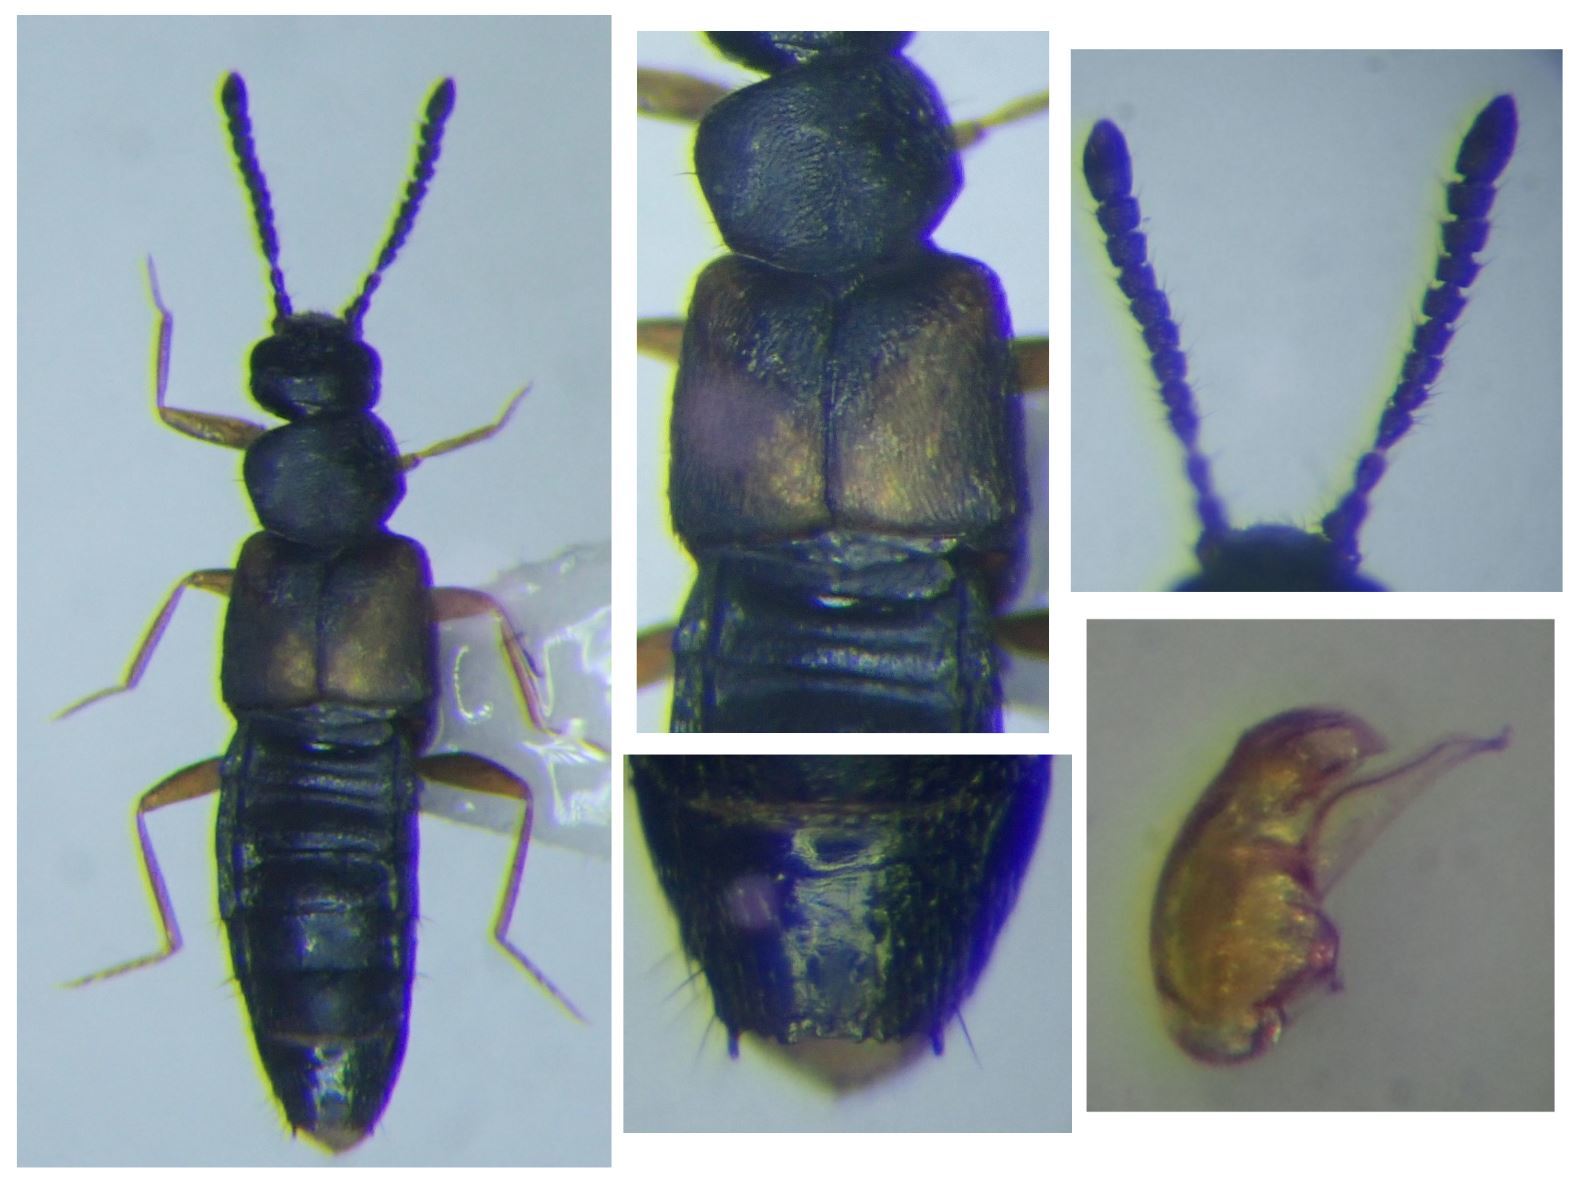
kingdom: Animalia
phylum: Arthropoda
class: Insecta
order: Coleoptera
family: Staphylinidae
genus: Atheta
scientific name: Atheta trinotata
